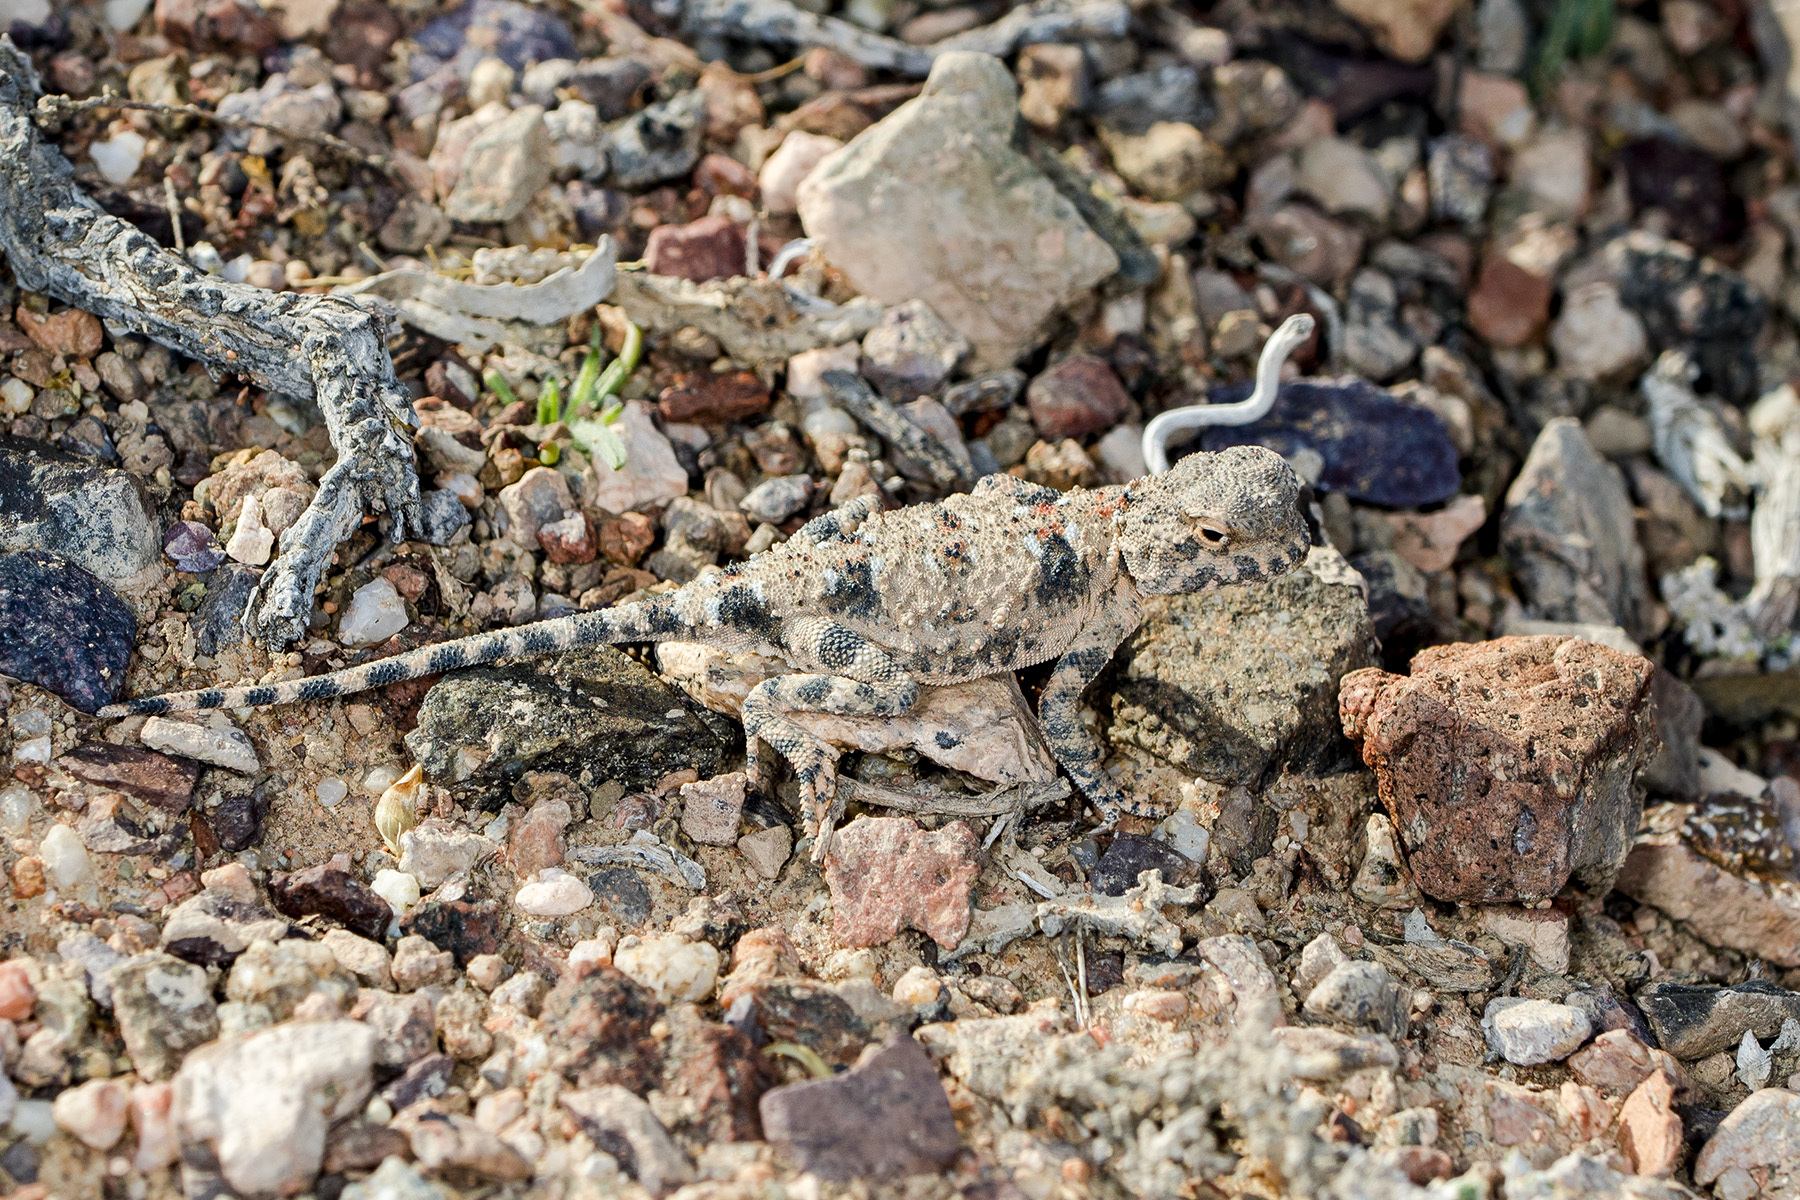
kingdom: Animalia
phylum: Chordata
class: Squamata
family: Agamidae
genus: Phrynocephalus
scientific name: Phrynocephalus helioscopus
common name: Sunwatcher
